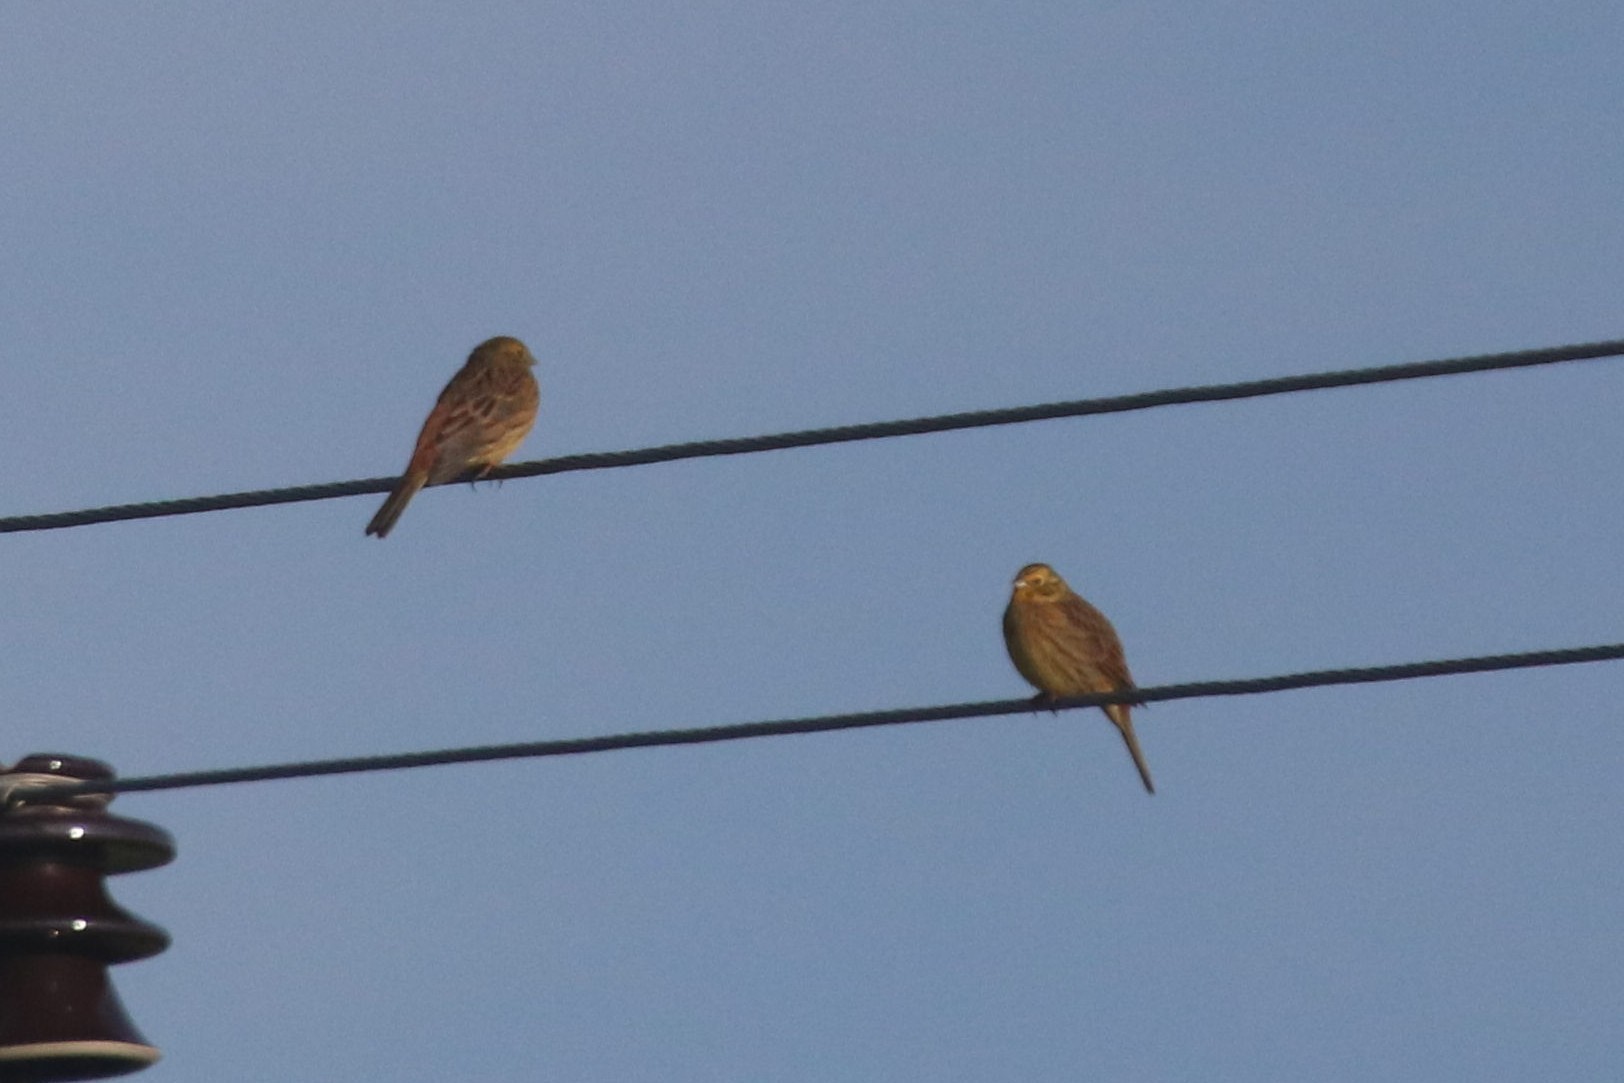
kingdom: Animalia
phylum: Chordata
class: Aves
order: Passeriformes
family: Emberizidae
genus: Emberiza
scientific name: Emberiza citrinella
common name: Yellowhammer
